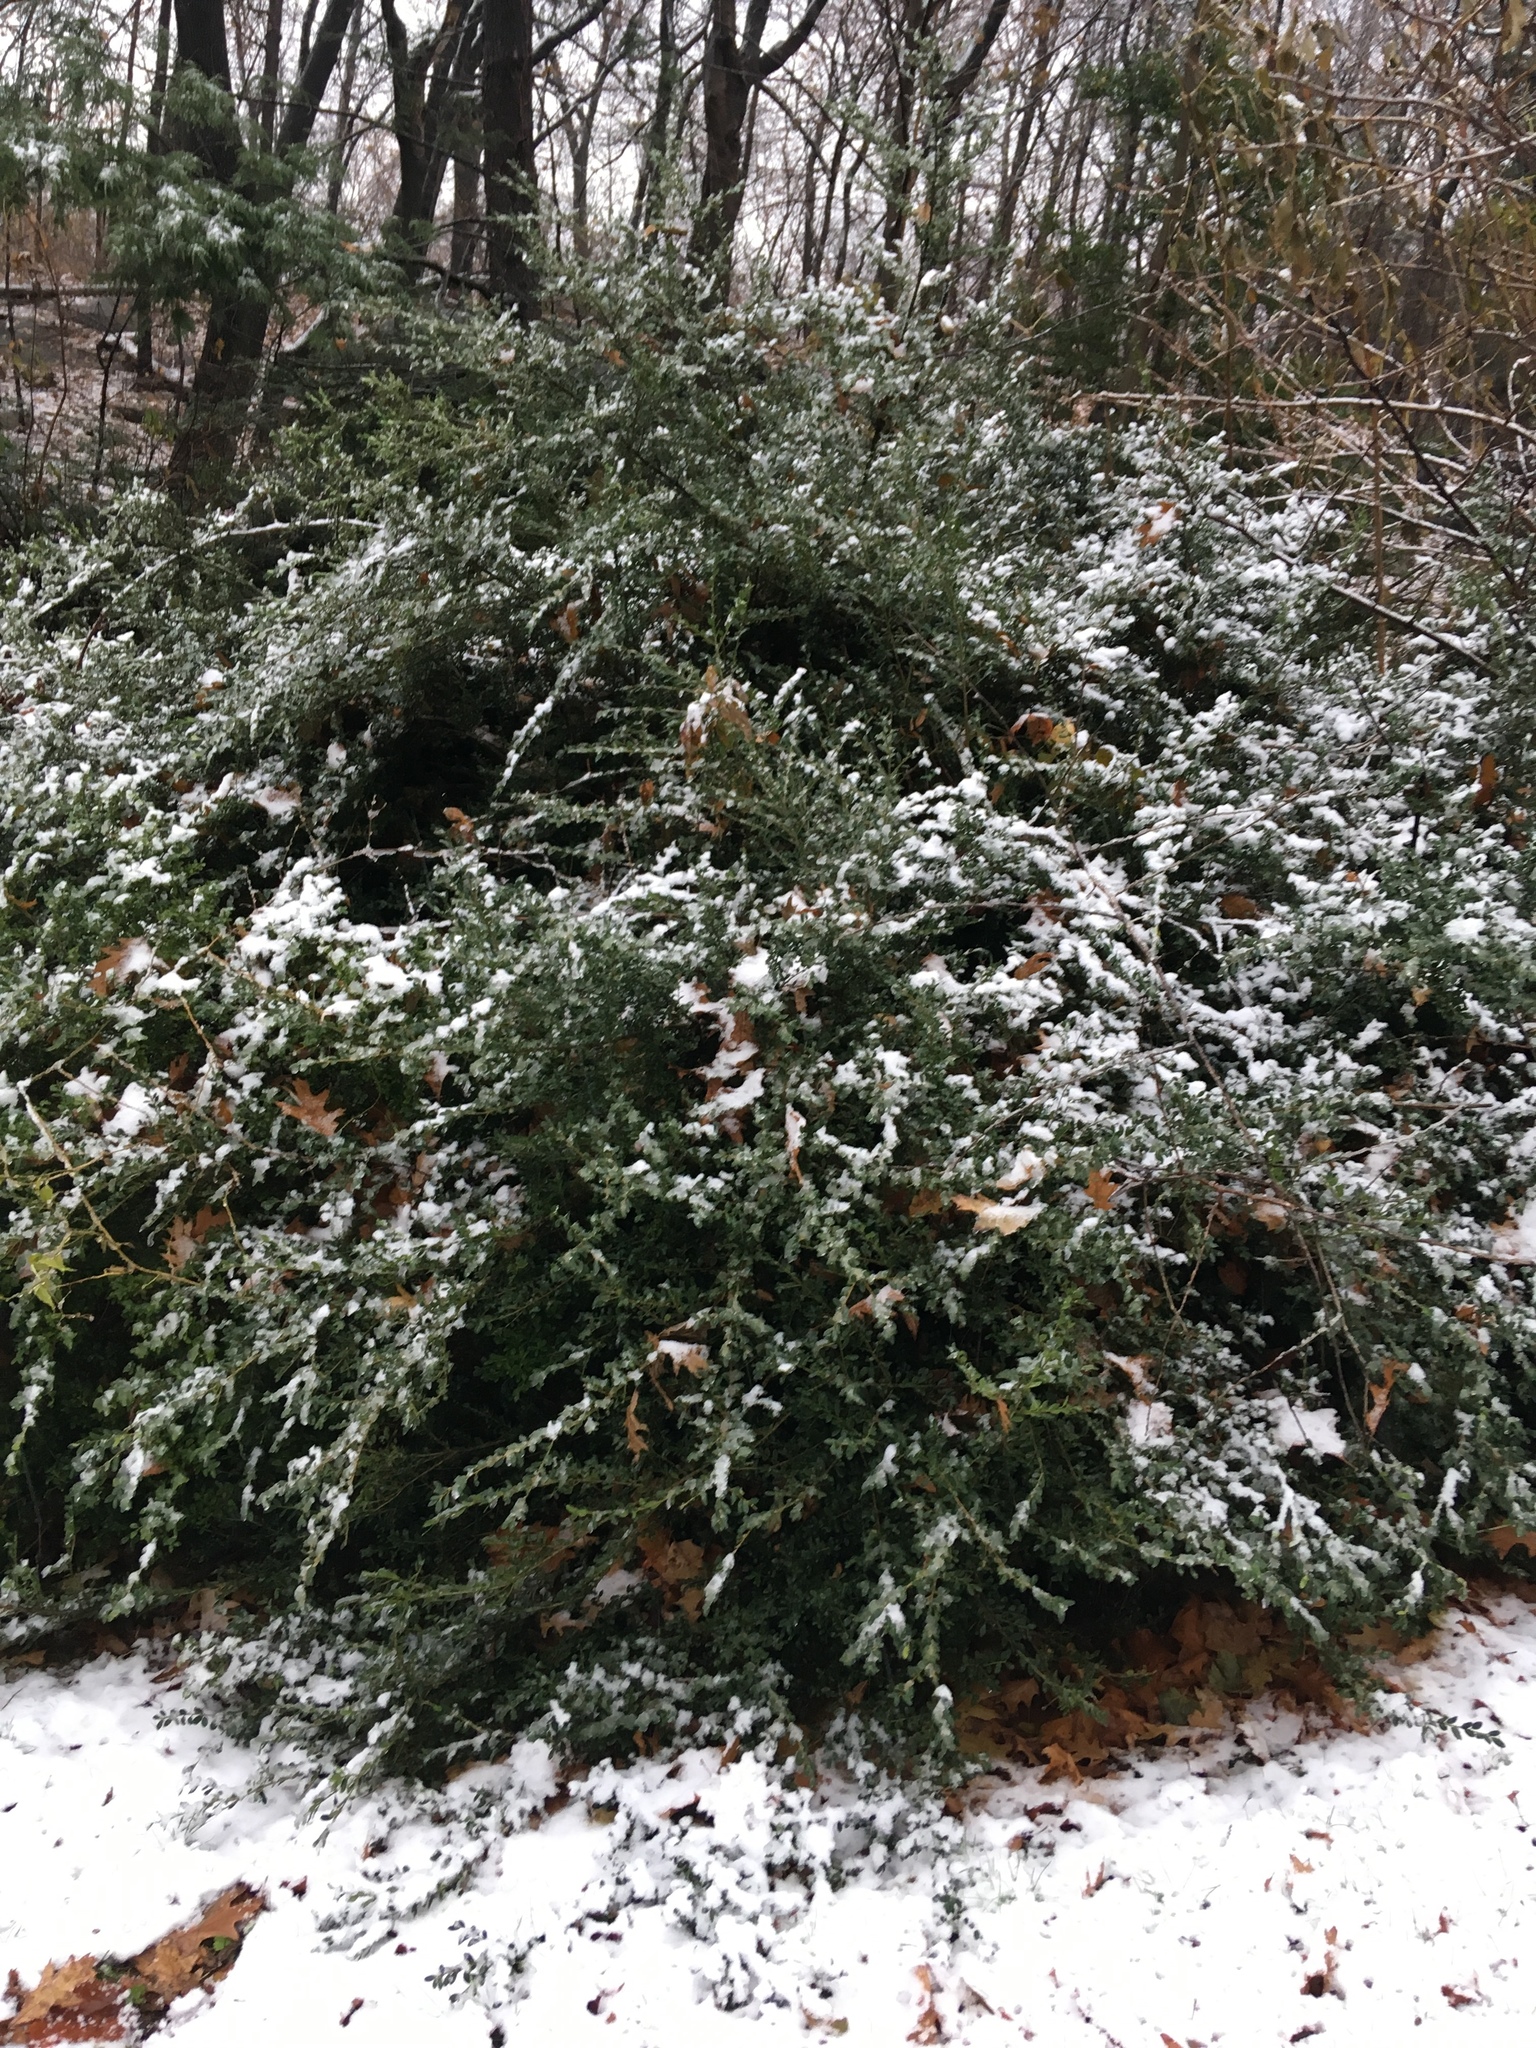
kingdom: Plantae
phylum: Tracheophyta
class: Magnoliopsida
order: Aquifoliales
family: Aquifoliaceae
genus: Ilex
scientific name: Ilex crenata
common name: Japanese holly
